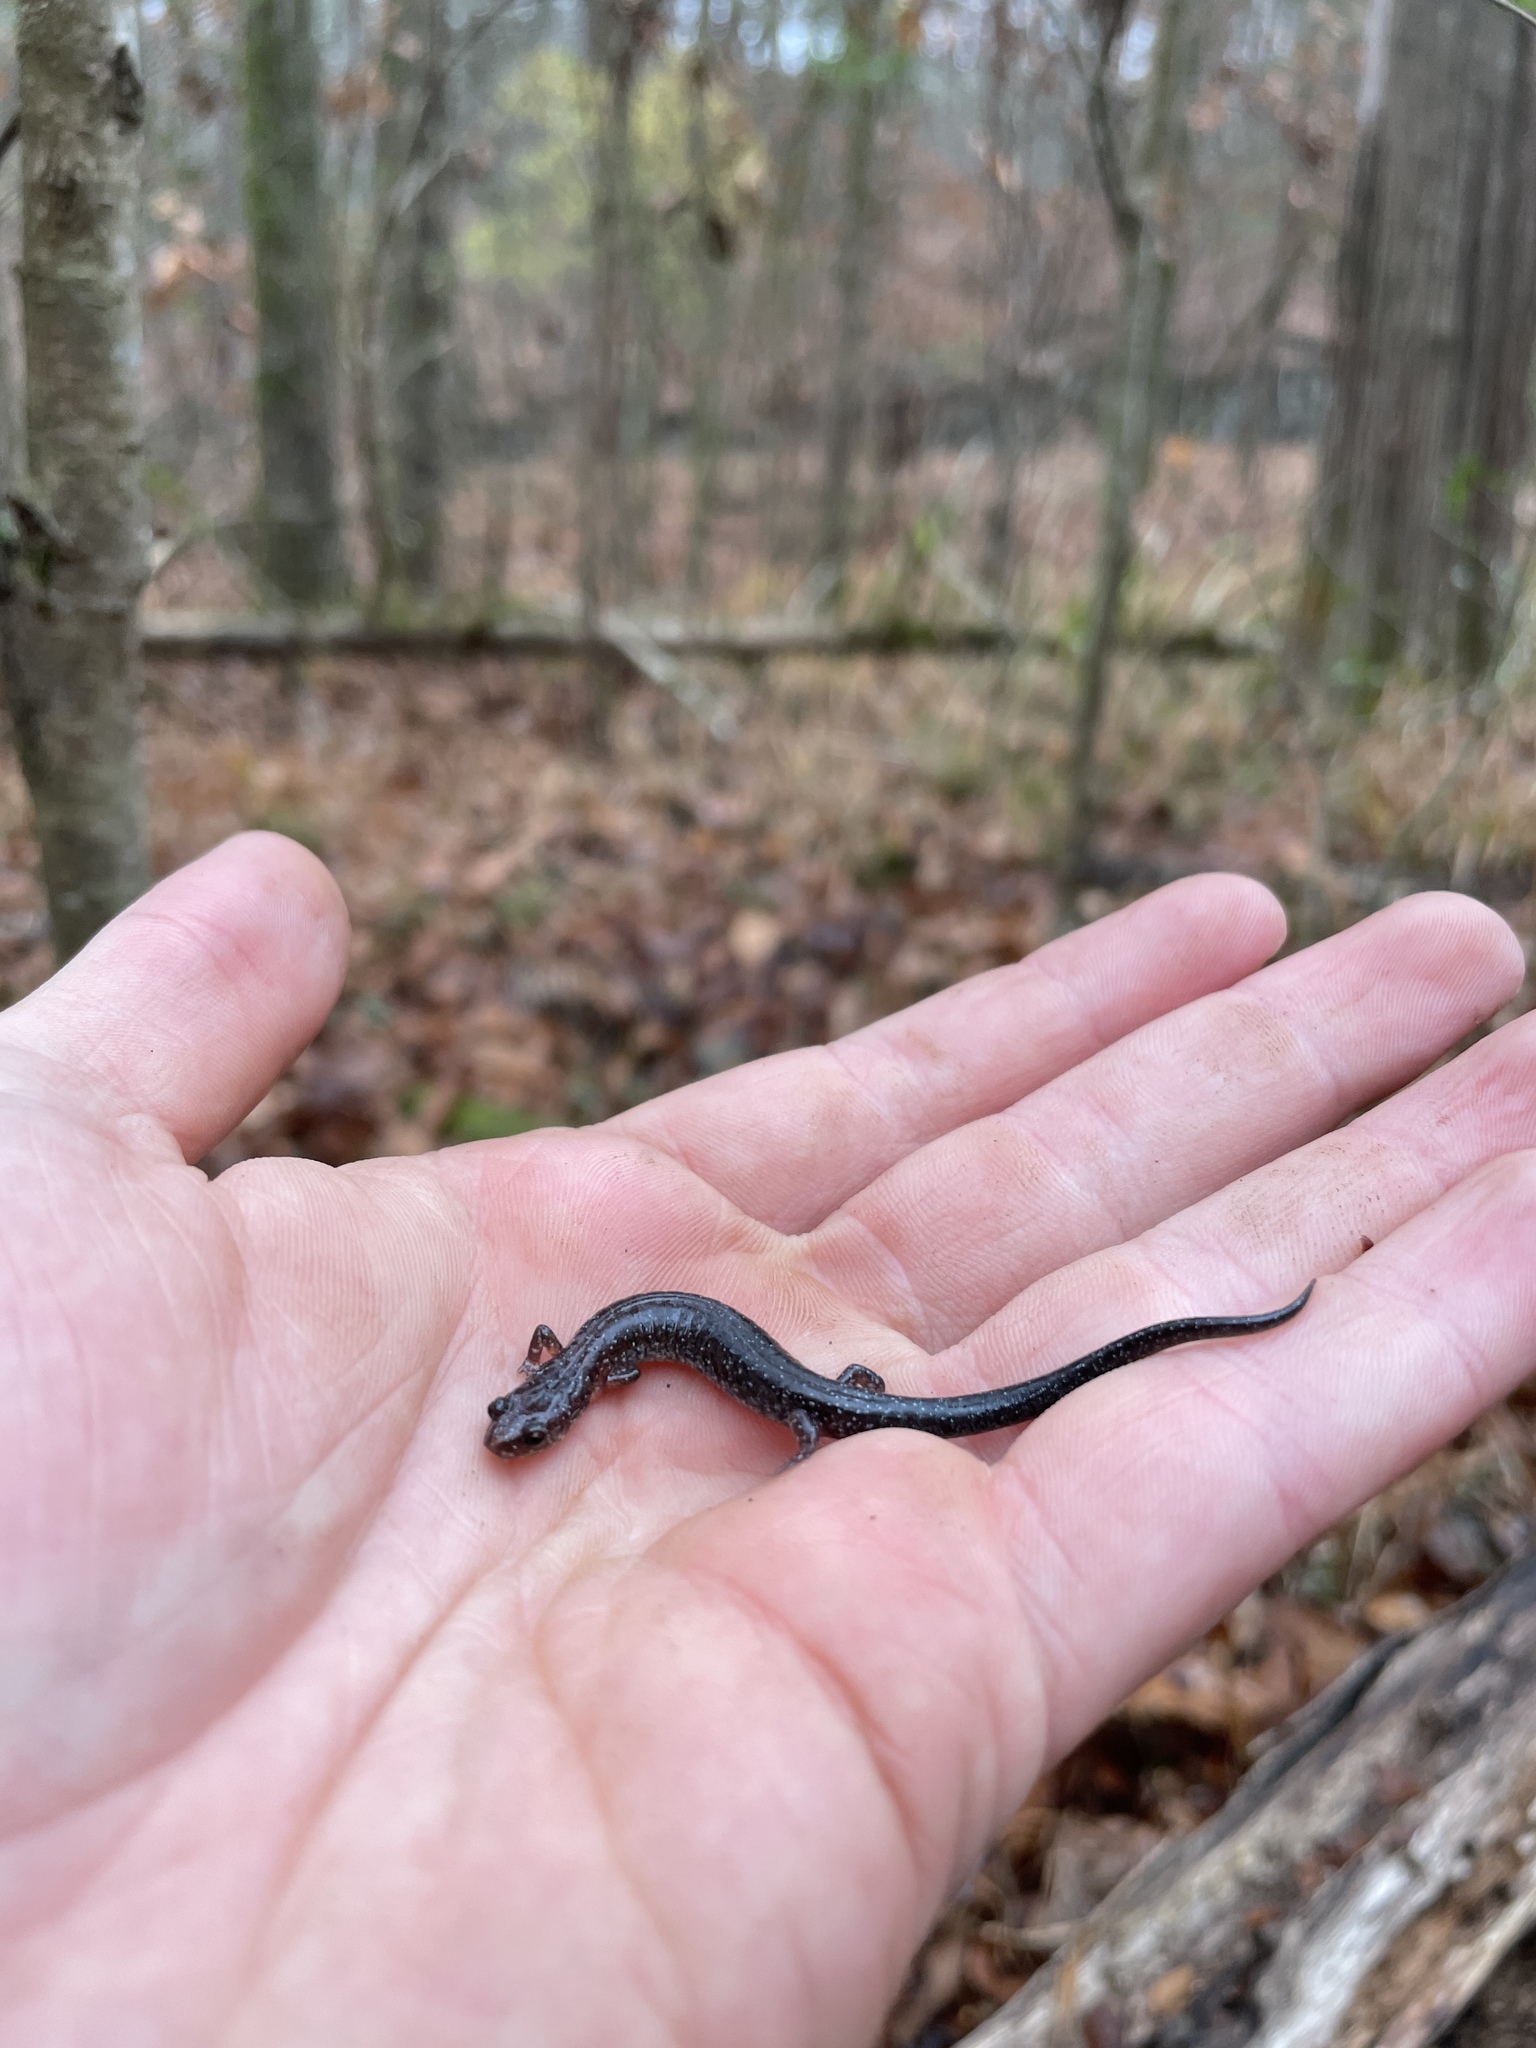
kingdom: Animalia
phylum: Chordata
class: Amphibia
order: Caudata
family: Plethodontidae
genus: Plethodon
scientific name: Plethodon serratus
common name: Southern red-backed salamander
